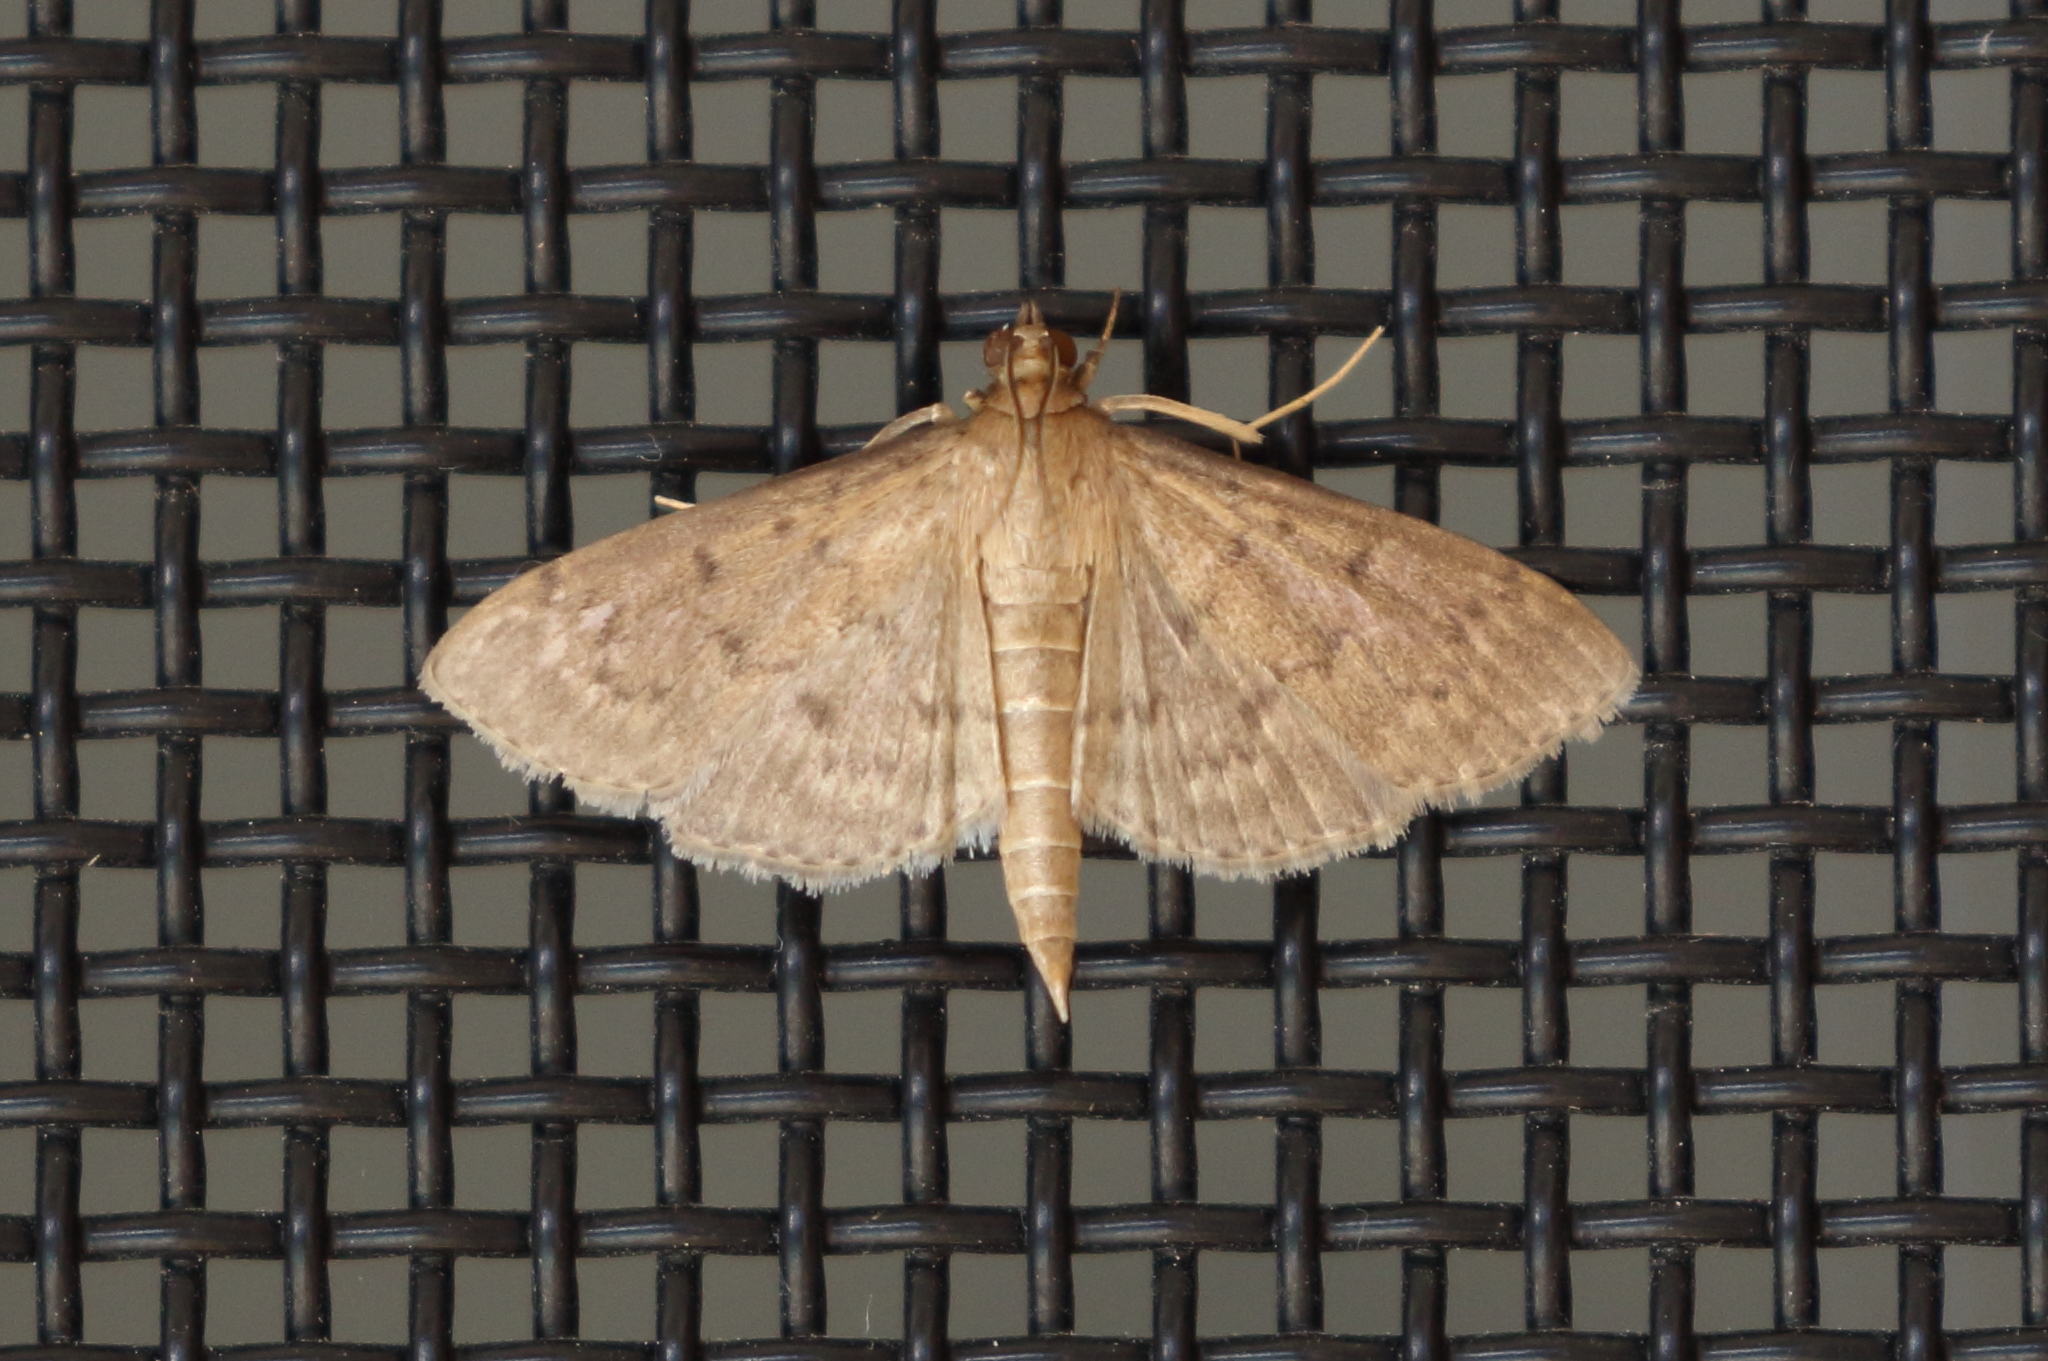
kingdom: Animalia
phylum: Arthropoda
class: Insecta
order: Lepidoptera
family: Crambidae
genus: Herpetogramma
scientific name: Herpetogramma licarsisalis
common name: Grass webworm
